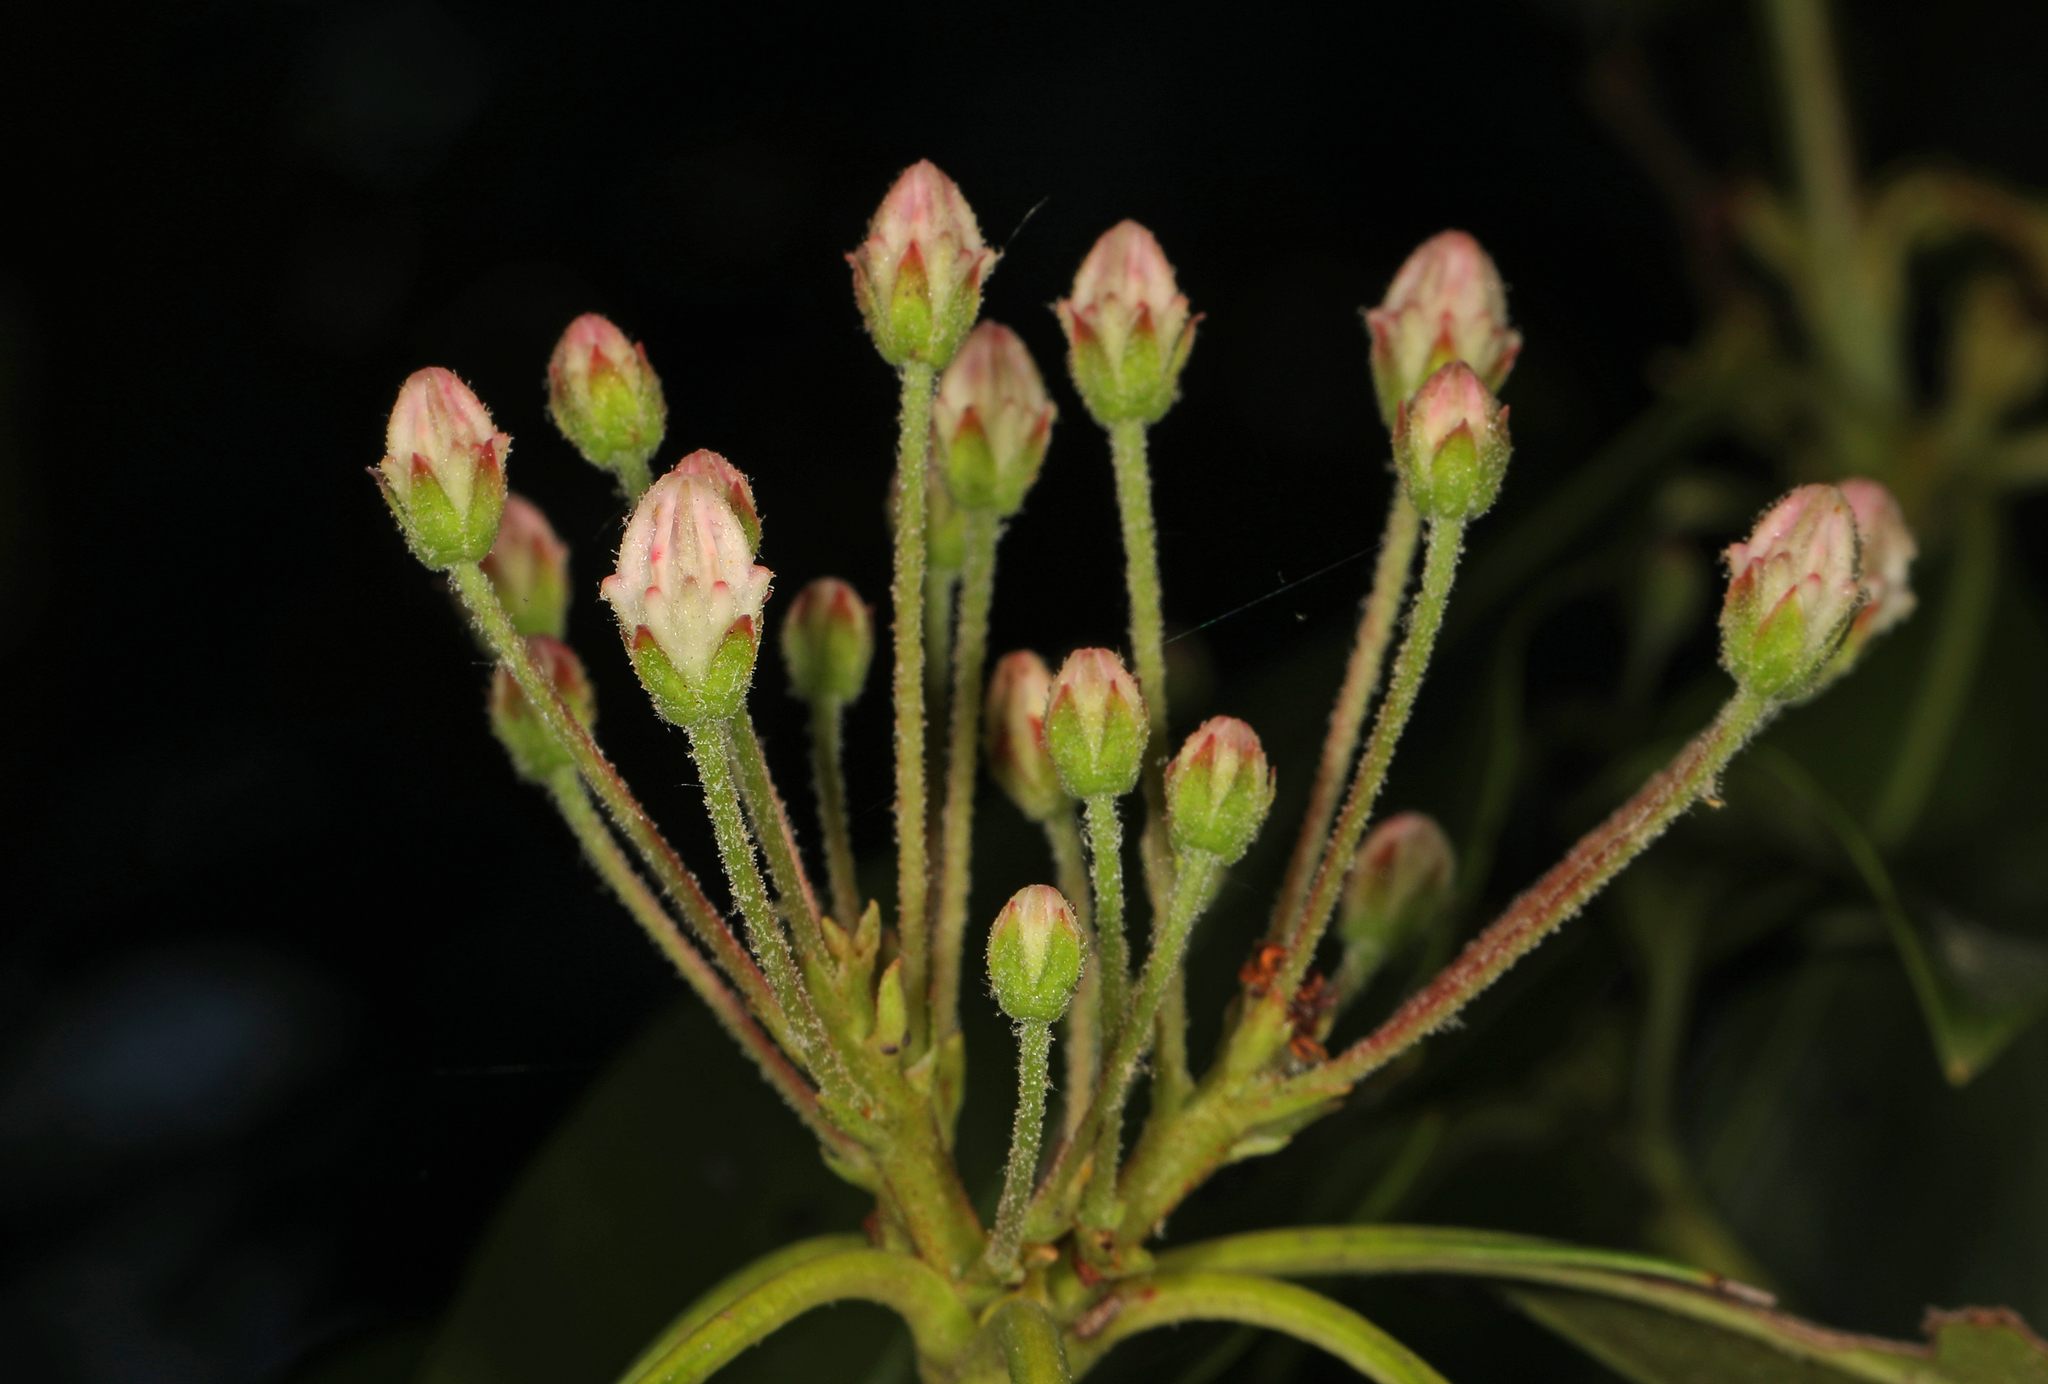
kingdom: Plantae
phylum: Tracheophyta
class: Magnoliopsida
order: Ericales
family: Ericaceae
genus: Kalmia
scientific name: Kalmia latifolia
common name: Mountain-laurel
